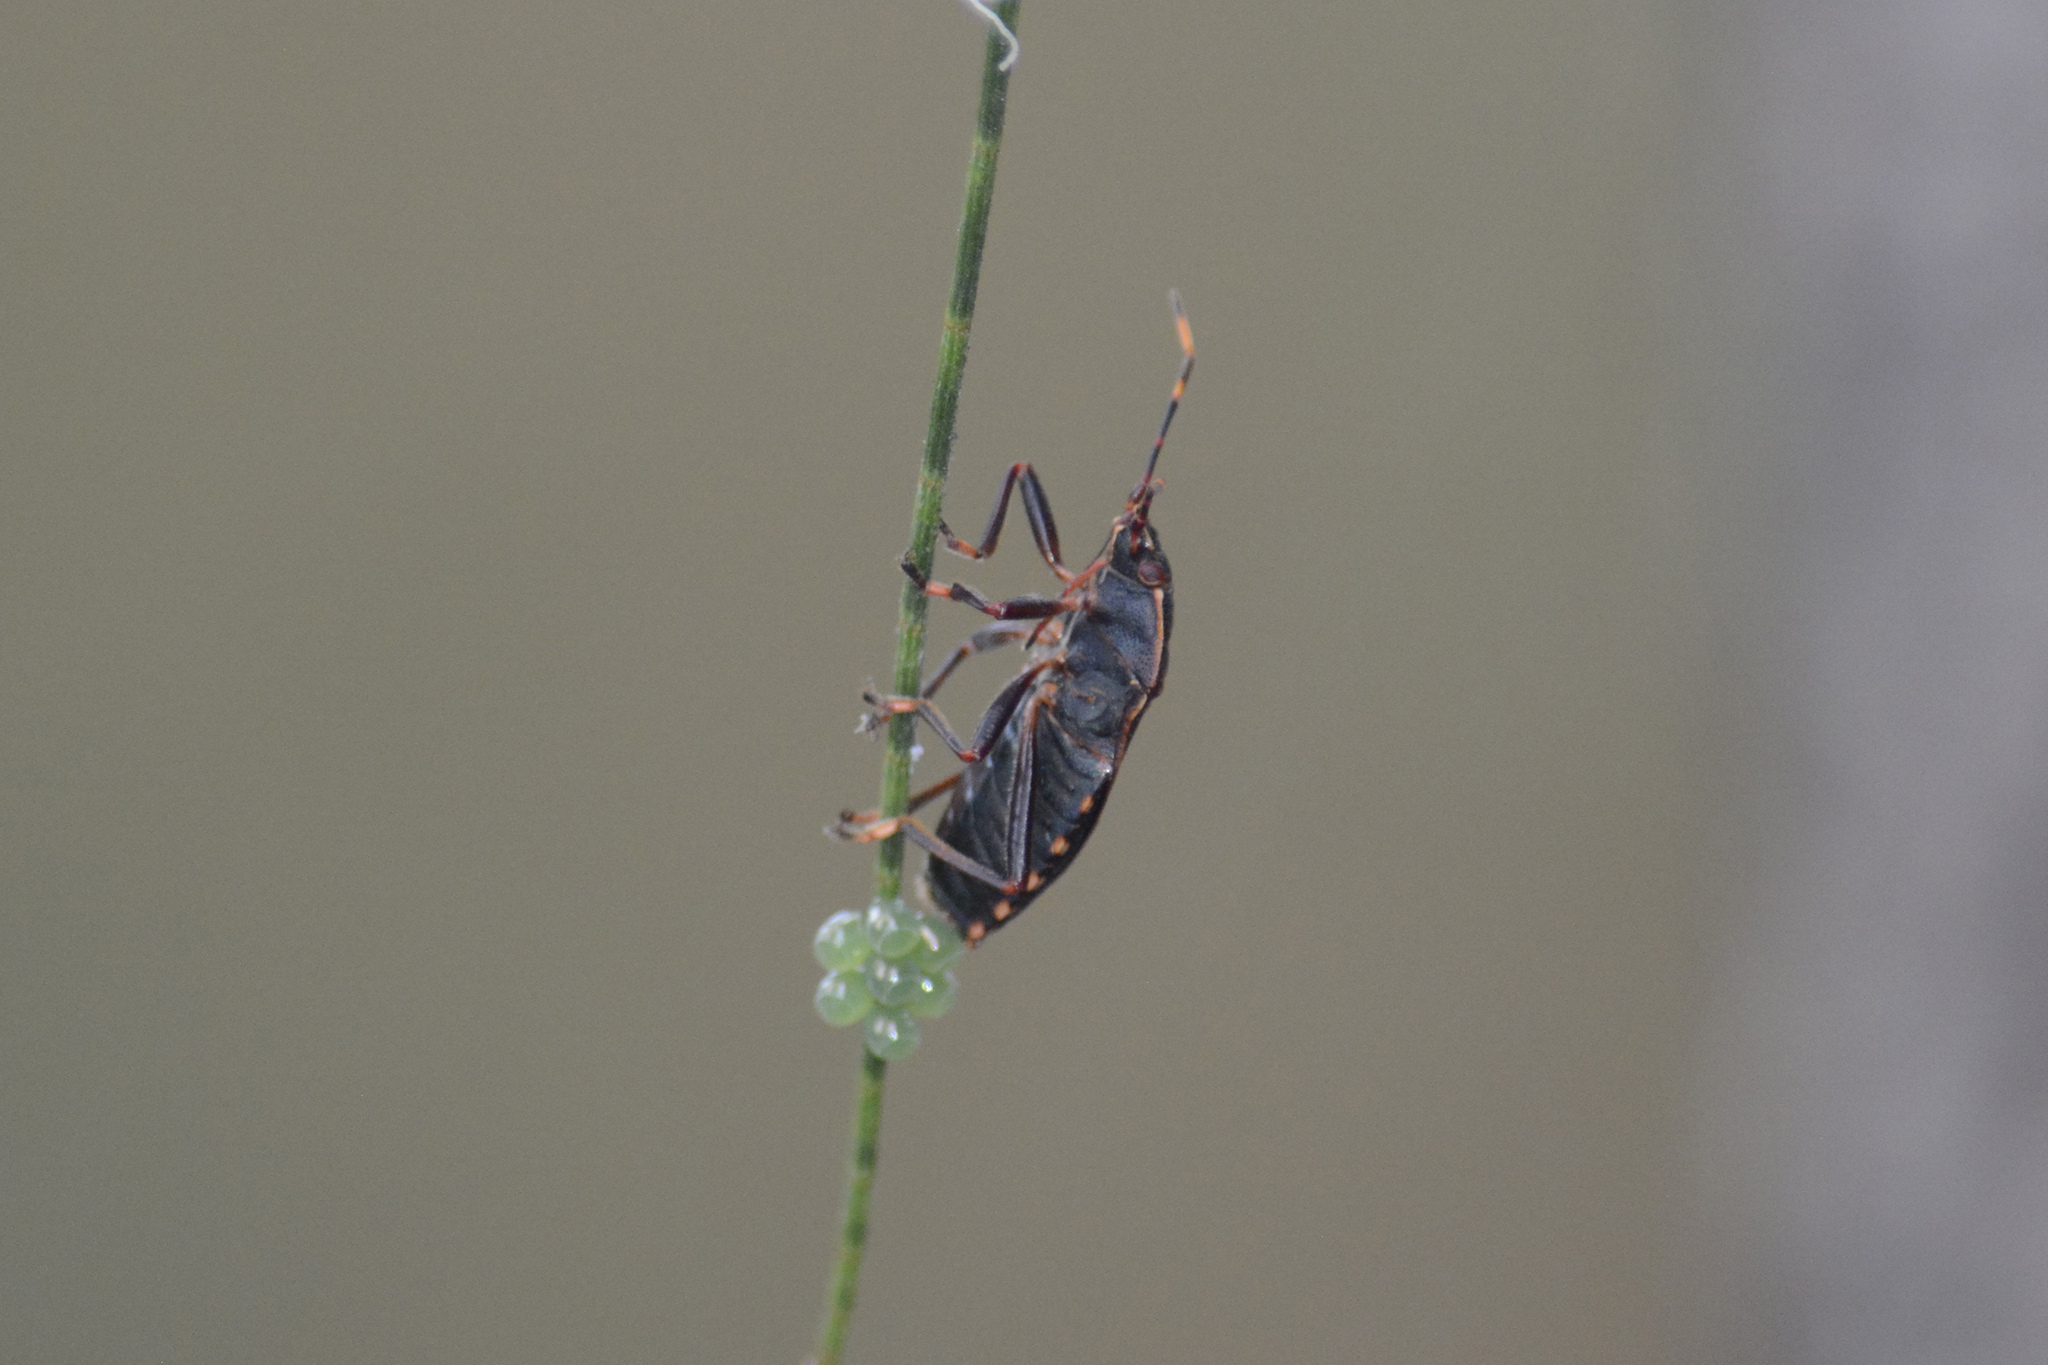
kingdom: Animalia
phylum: Arthropoda
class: Insecta
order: Hemiptera
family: Pentatomidae
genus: Notius
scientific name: Notius
